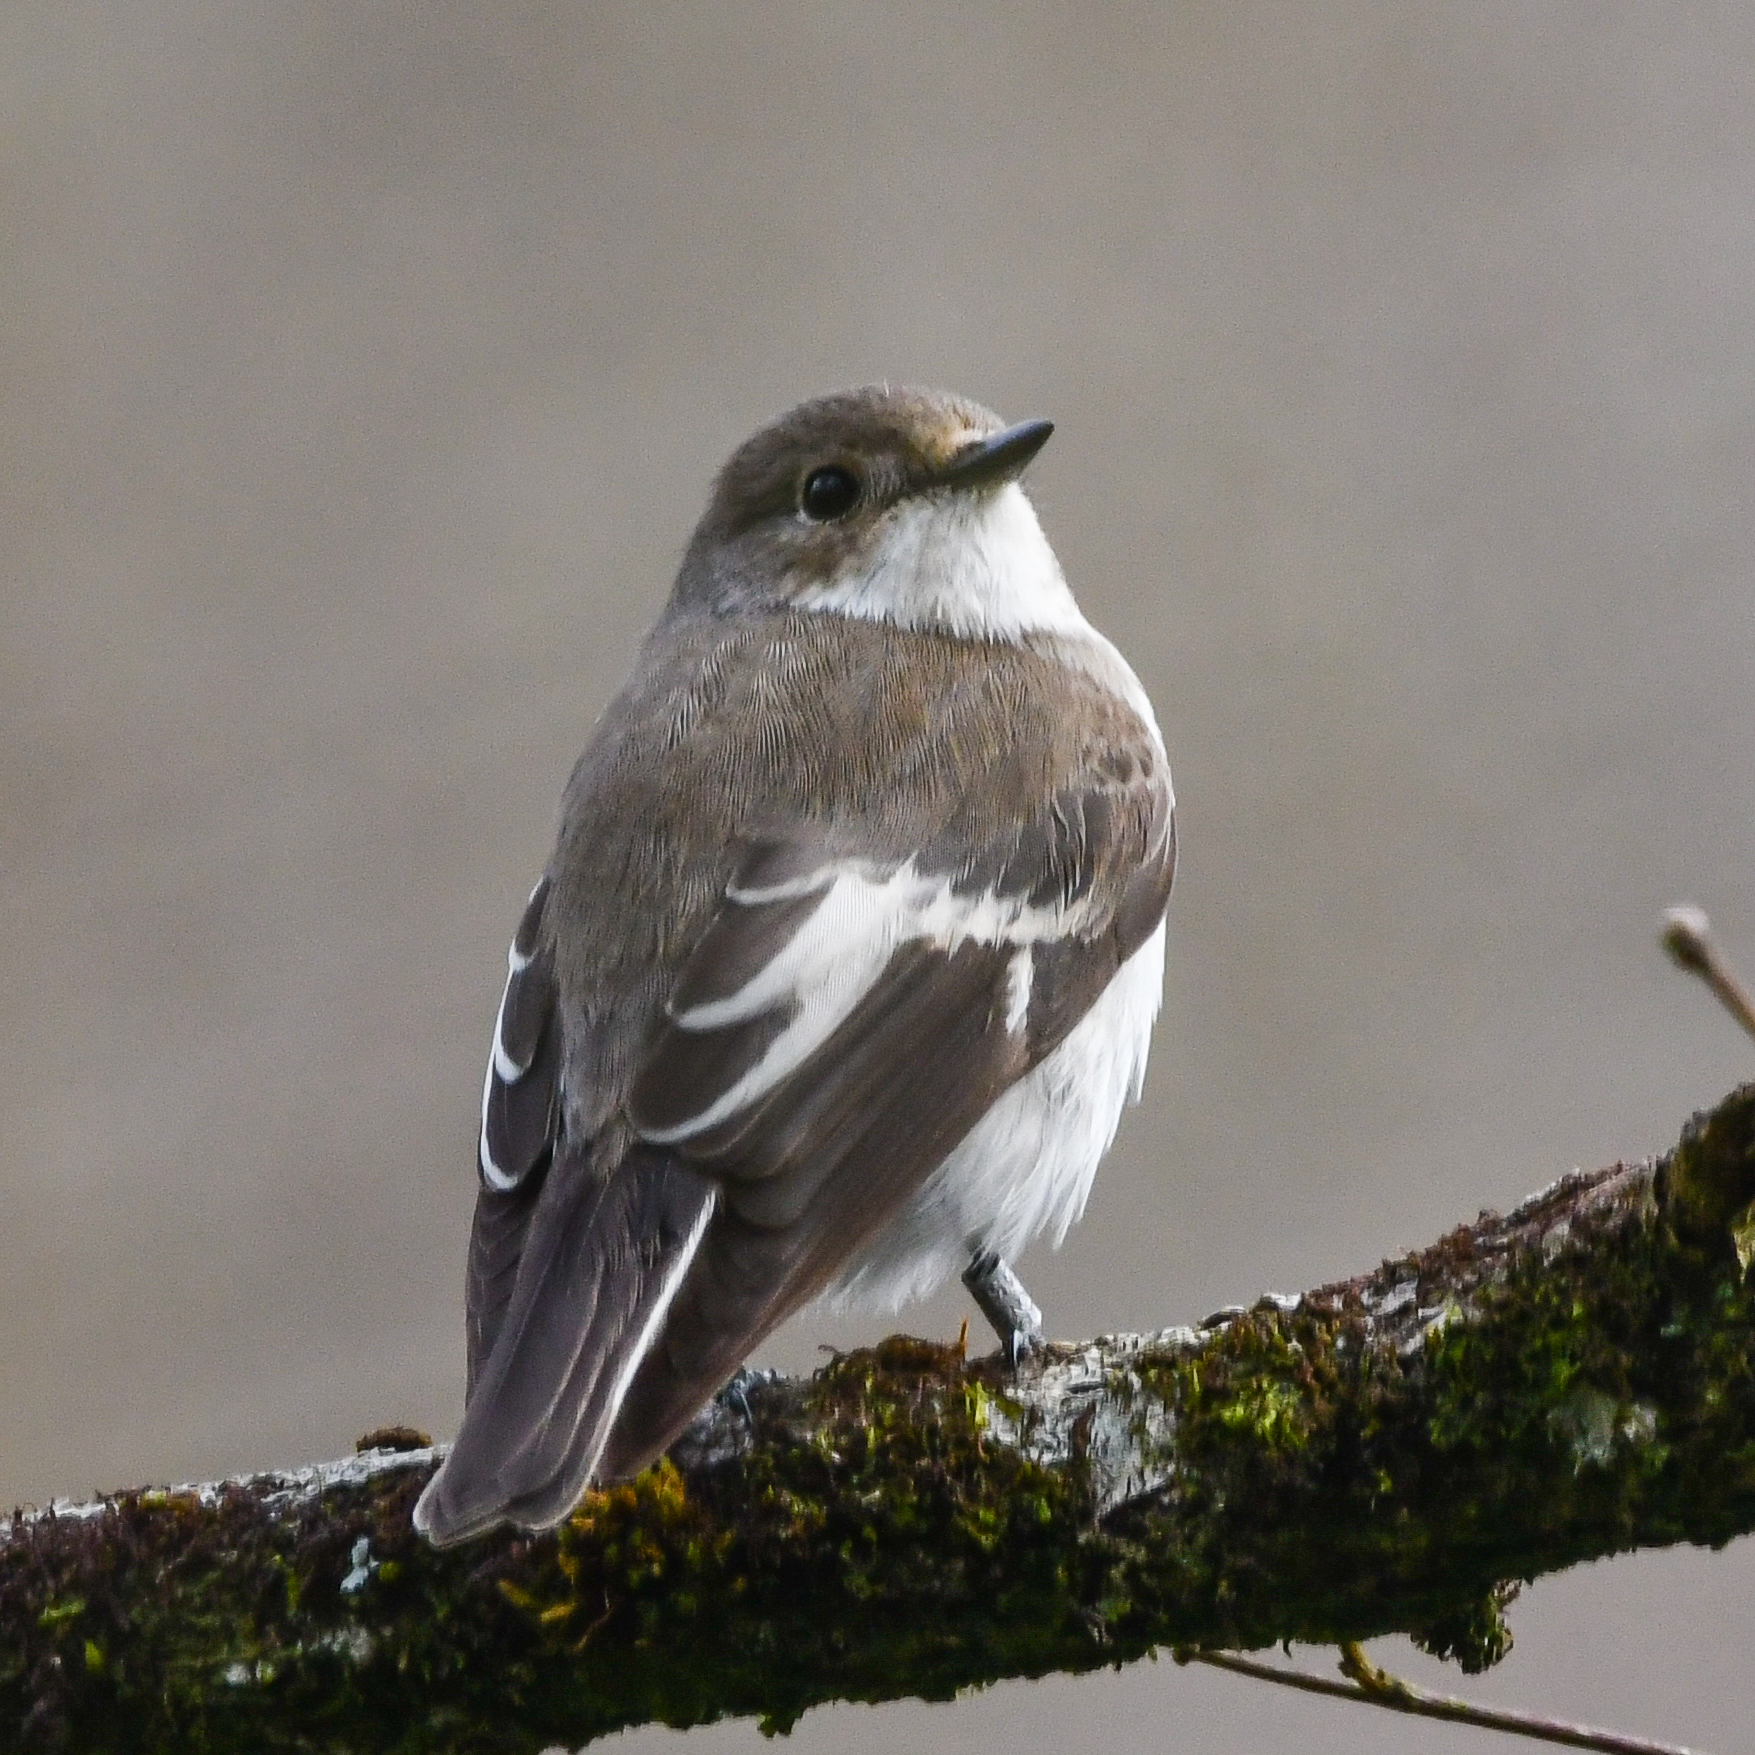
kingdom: Animalia
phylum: Chordata
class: Aves
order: Passeriformes
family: Muscicapidae
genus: Ficedula
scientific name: Ficedula hypoleuca
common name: European pied flycatcher
